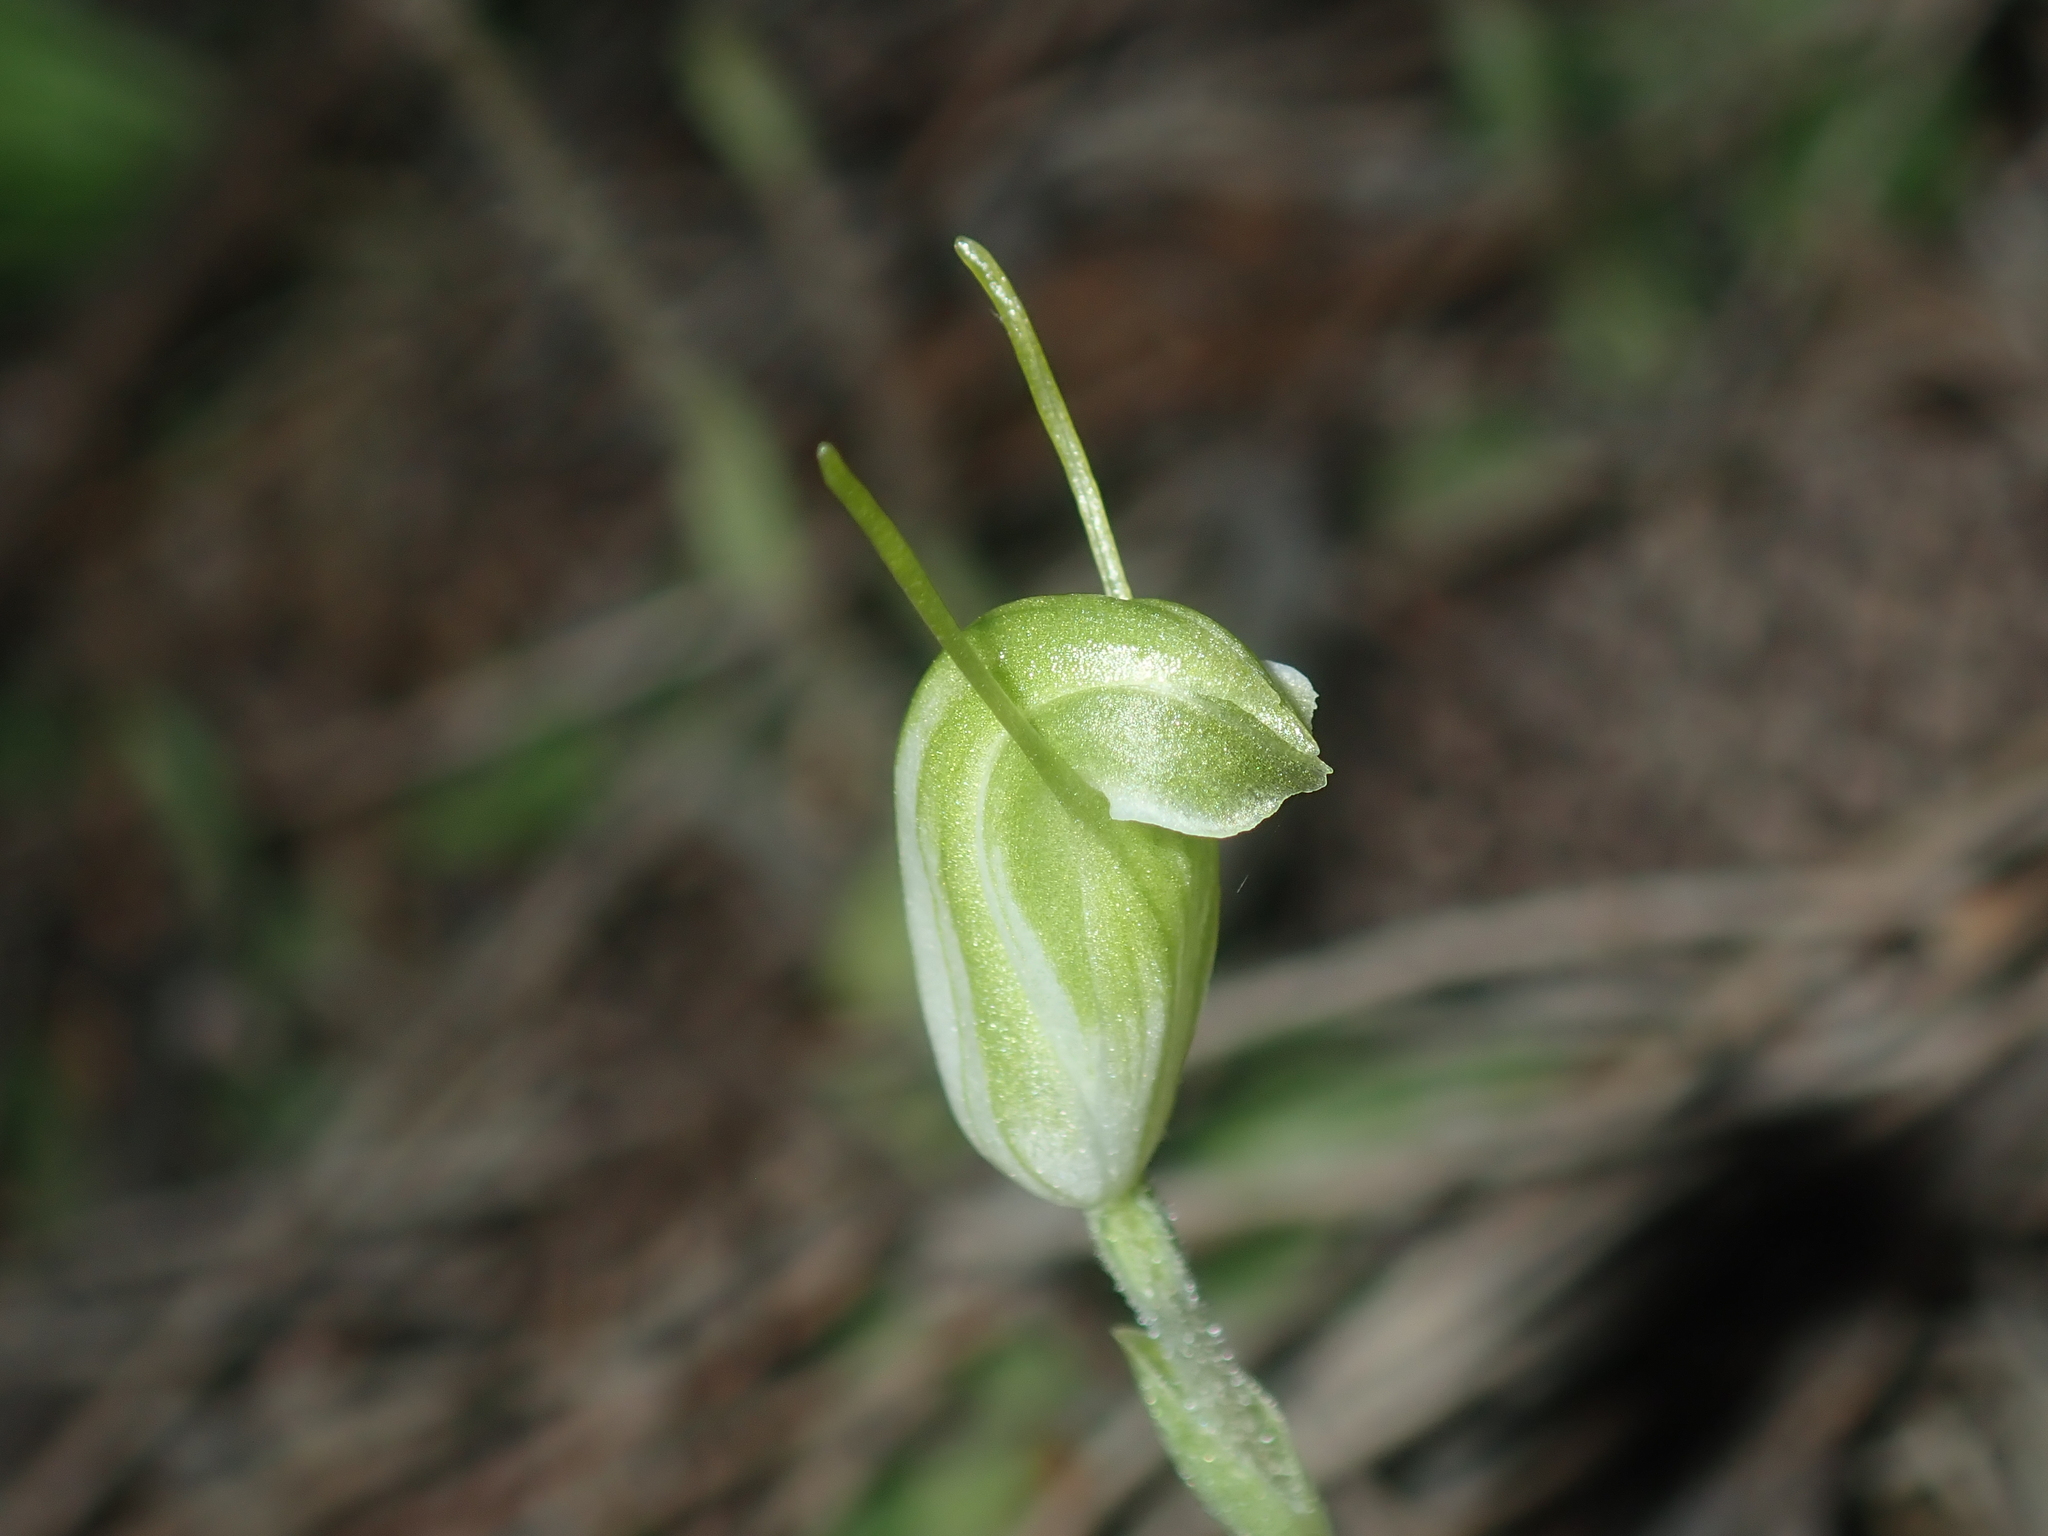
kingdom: Plantae
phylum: Tracheophyta
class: Liliopsida
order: Asparagales
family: Orchidaceae
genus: Pterostylis
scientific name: Pterostylis setulosa
